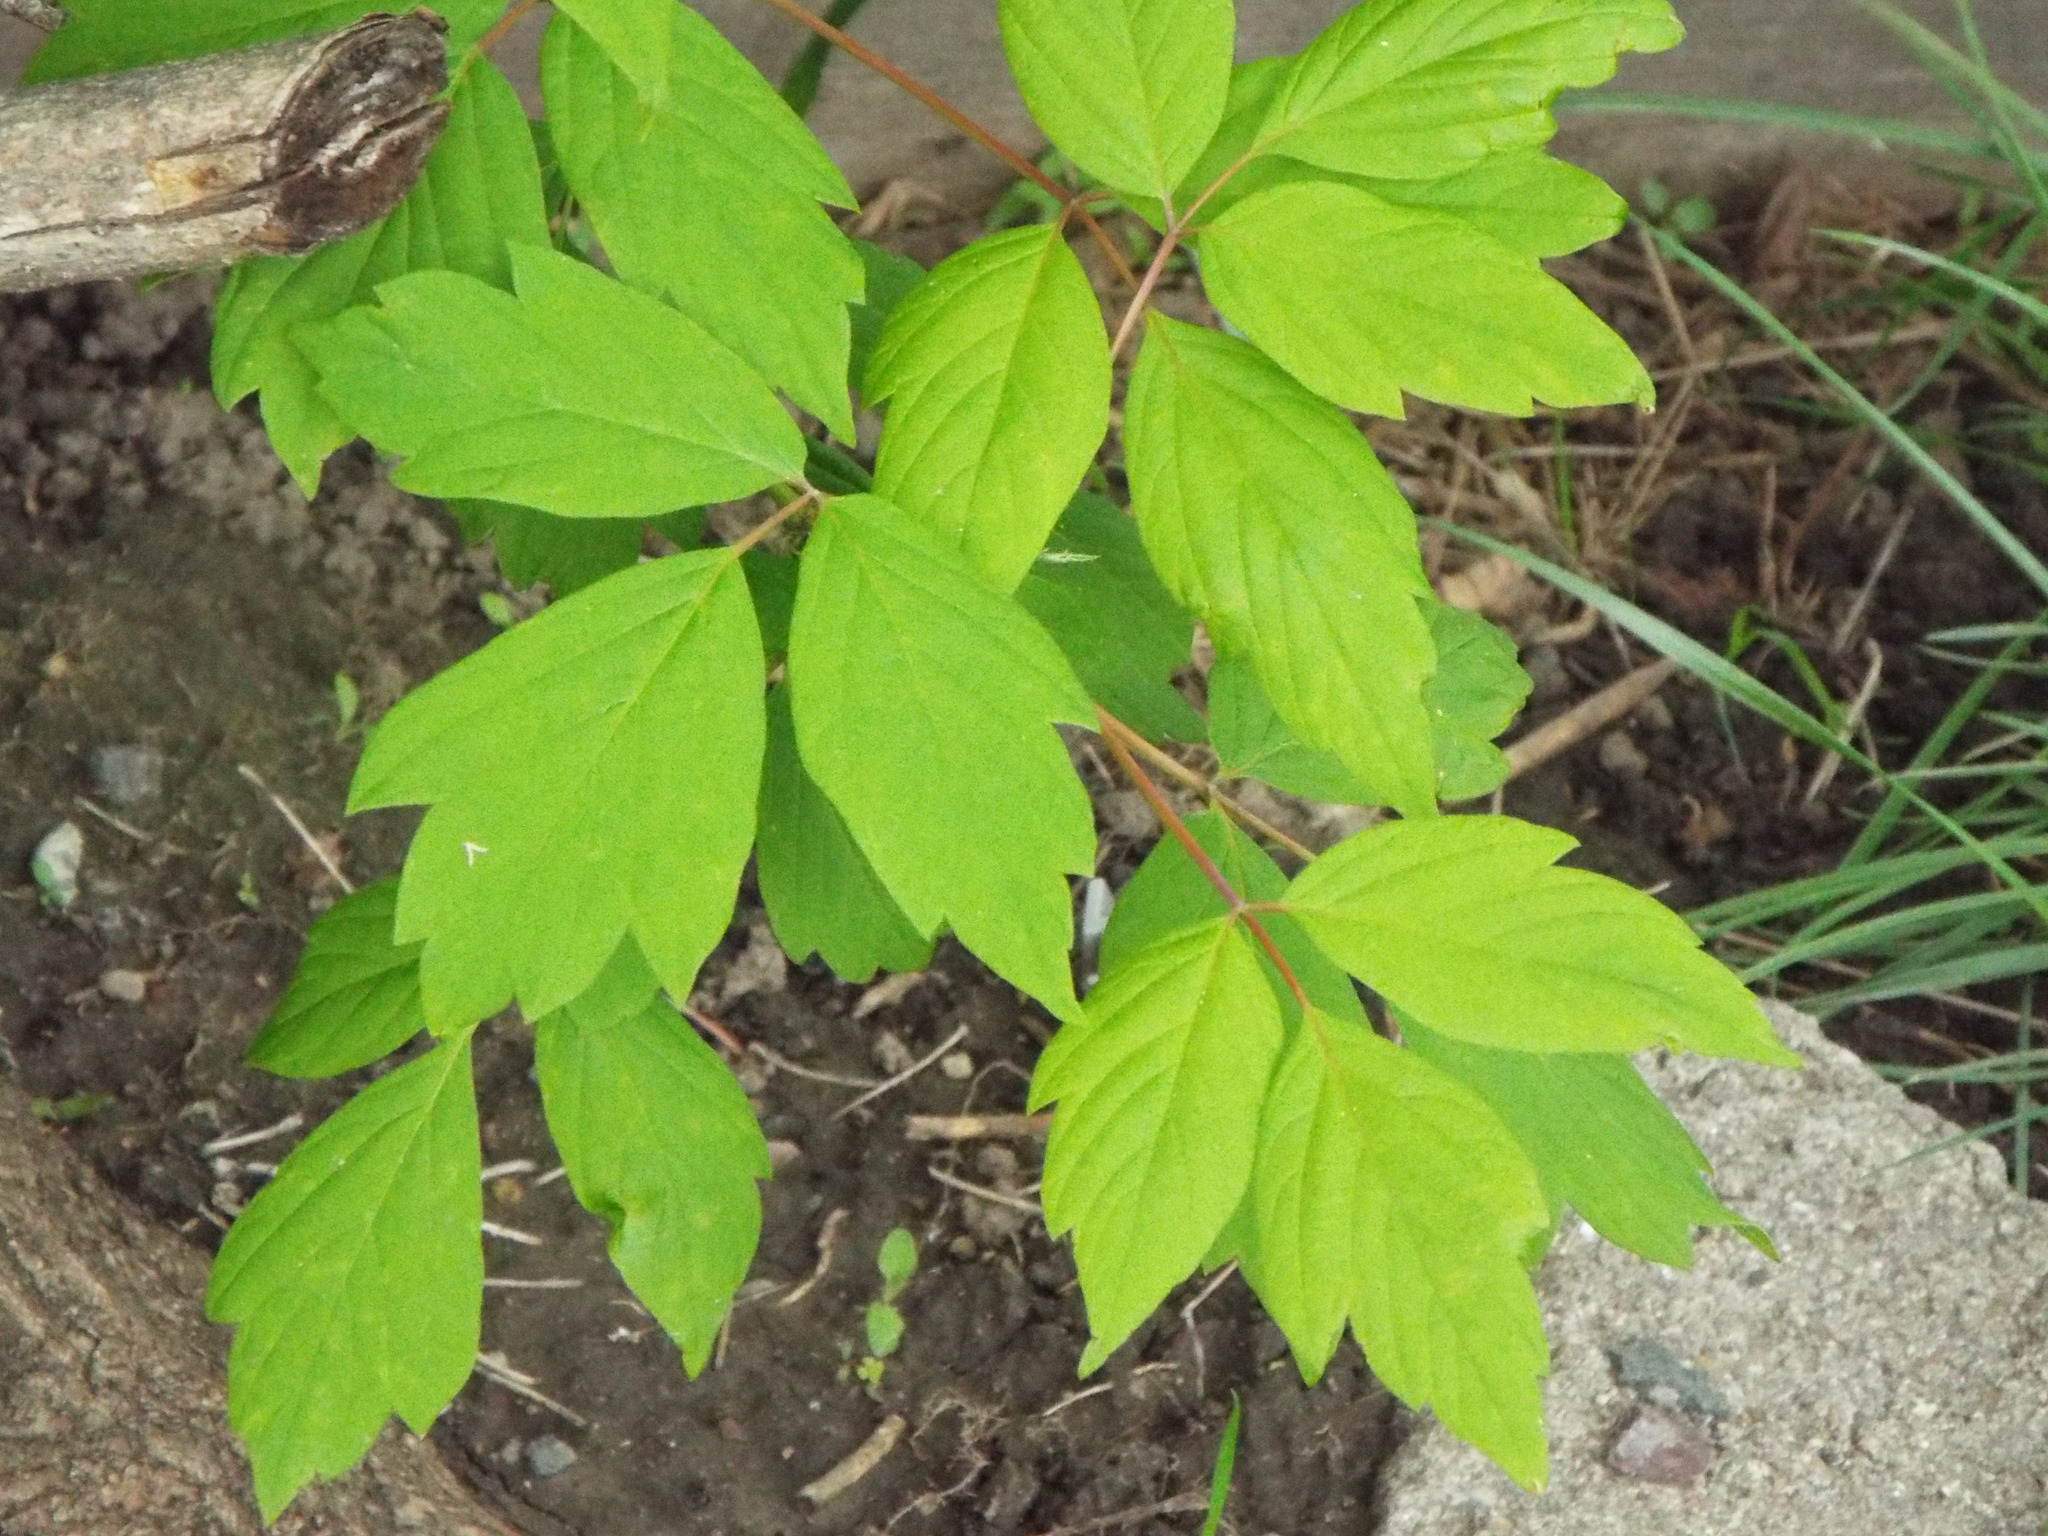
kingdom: Plantae
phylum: Tracheophyta
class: Magnoliopsida
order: Sapindales
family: Sapindaceae
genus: Acer
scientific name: Acer negundo
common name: Ashleaf maple
